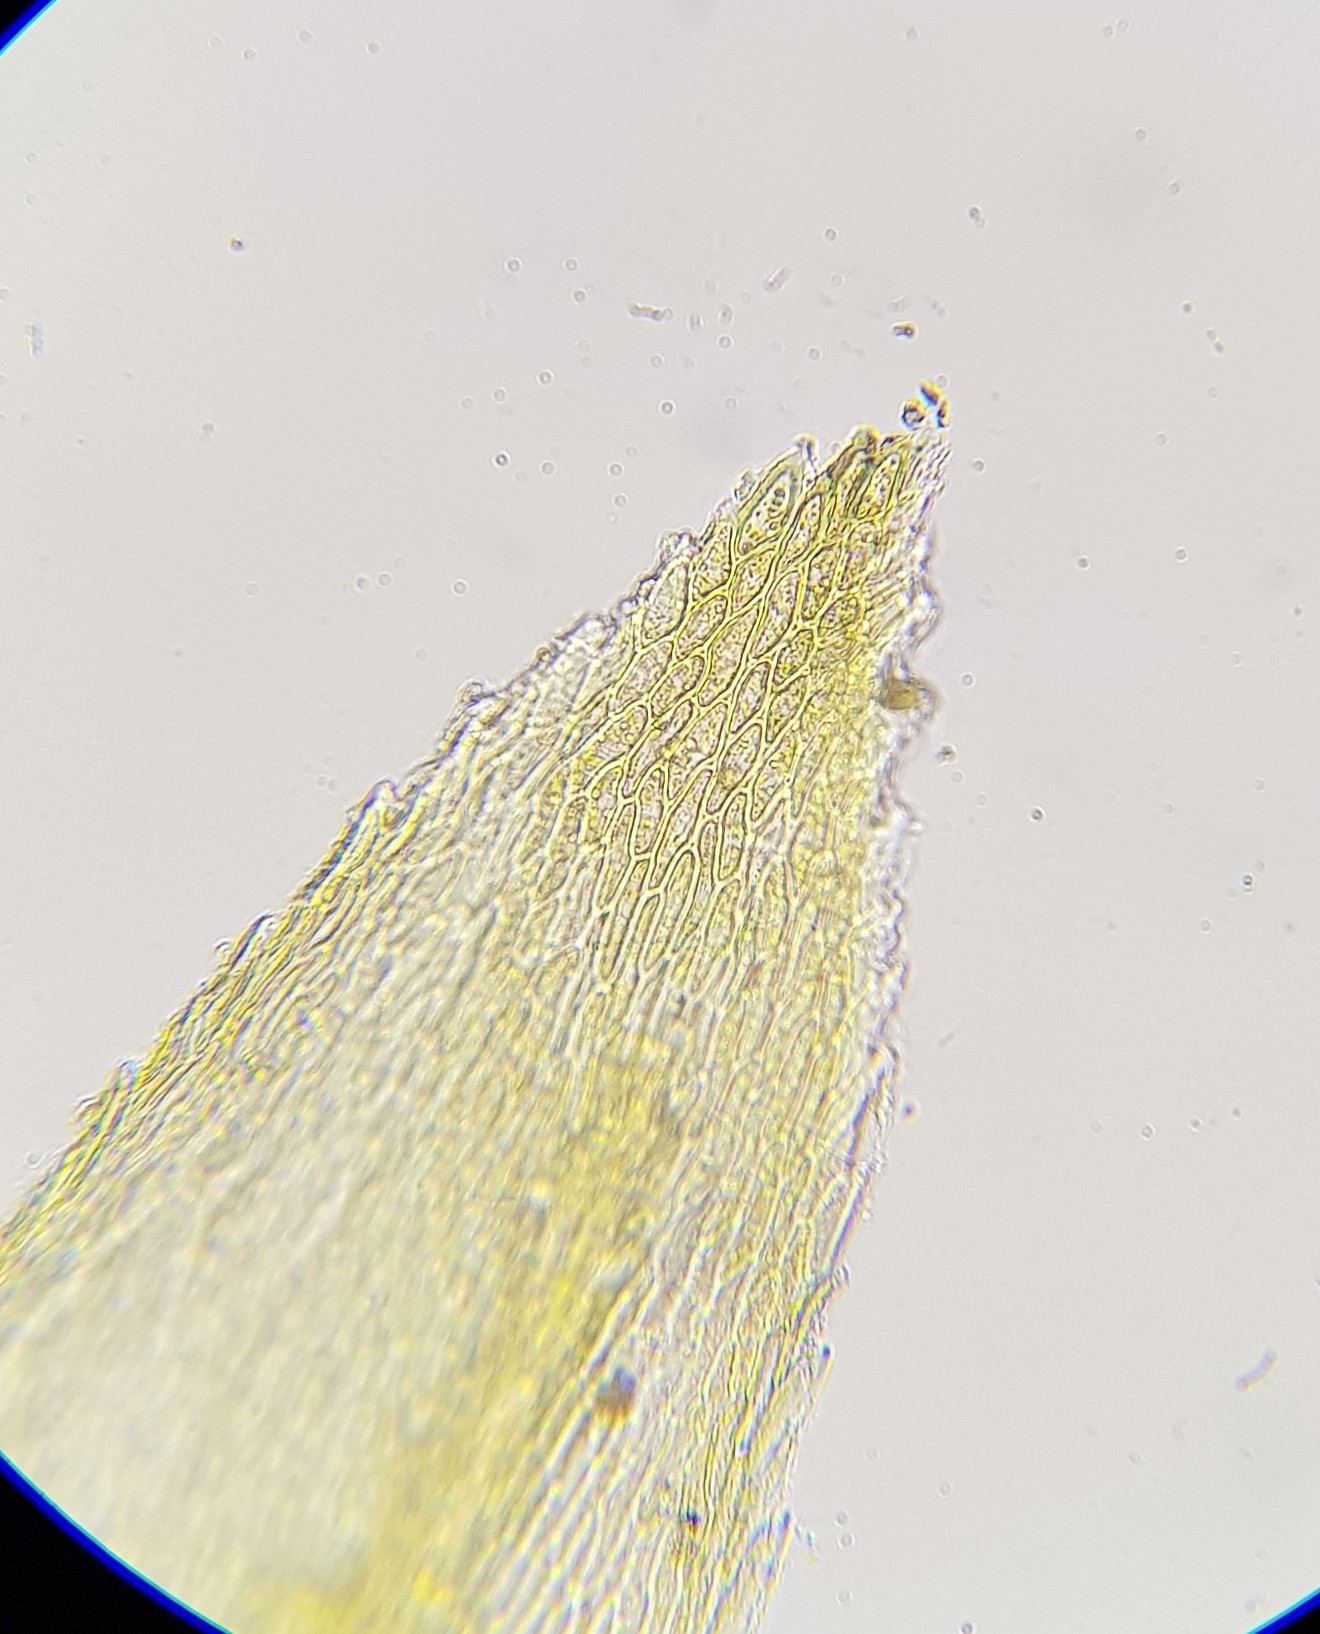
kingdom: Plantae
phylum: Bryophyta
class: Bryopsida
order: Hypnales
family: Brachytheciaceae
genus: Scleropodium
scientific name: Scleropodium cespitans
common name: Appleyard's feather-moss
